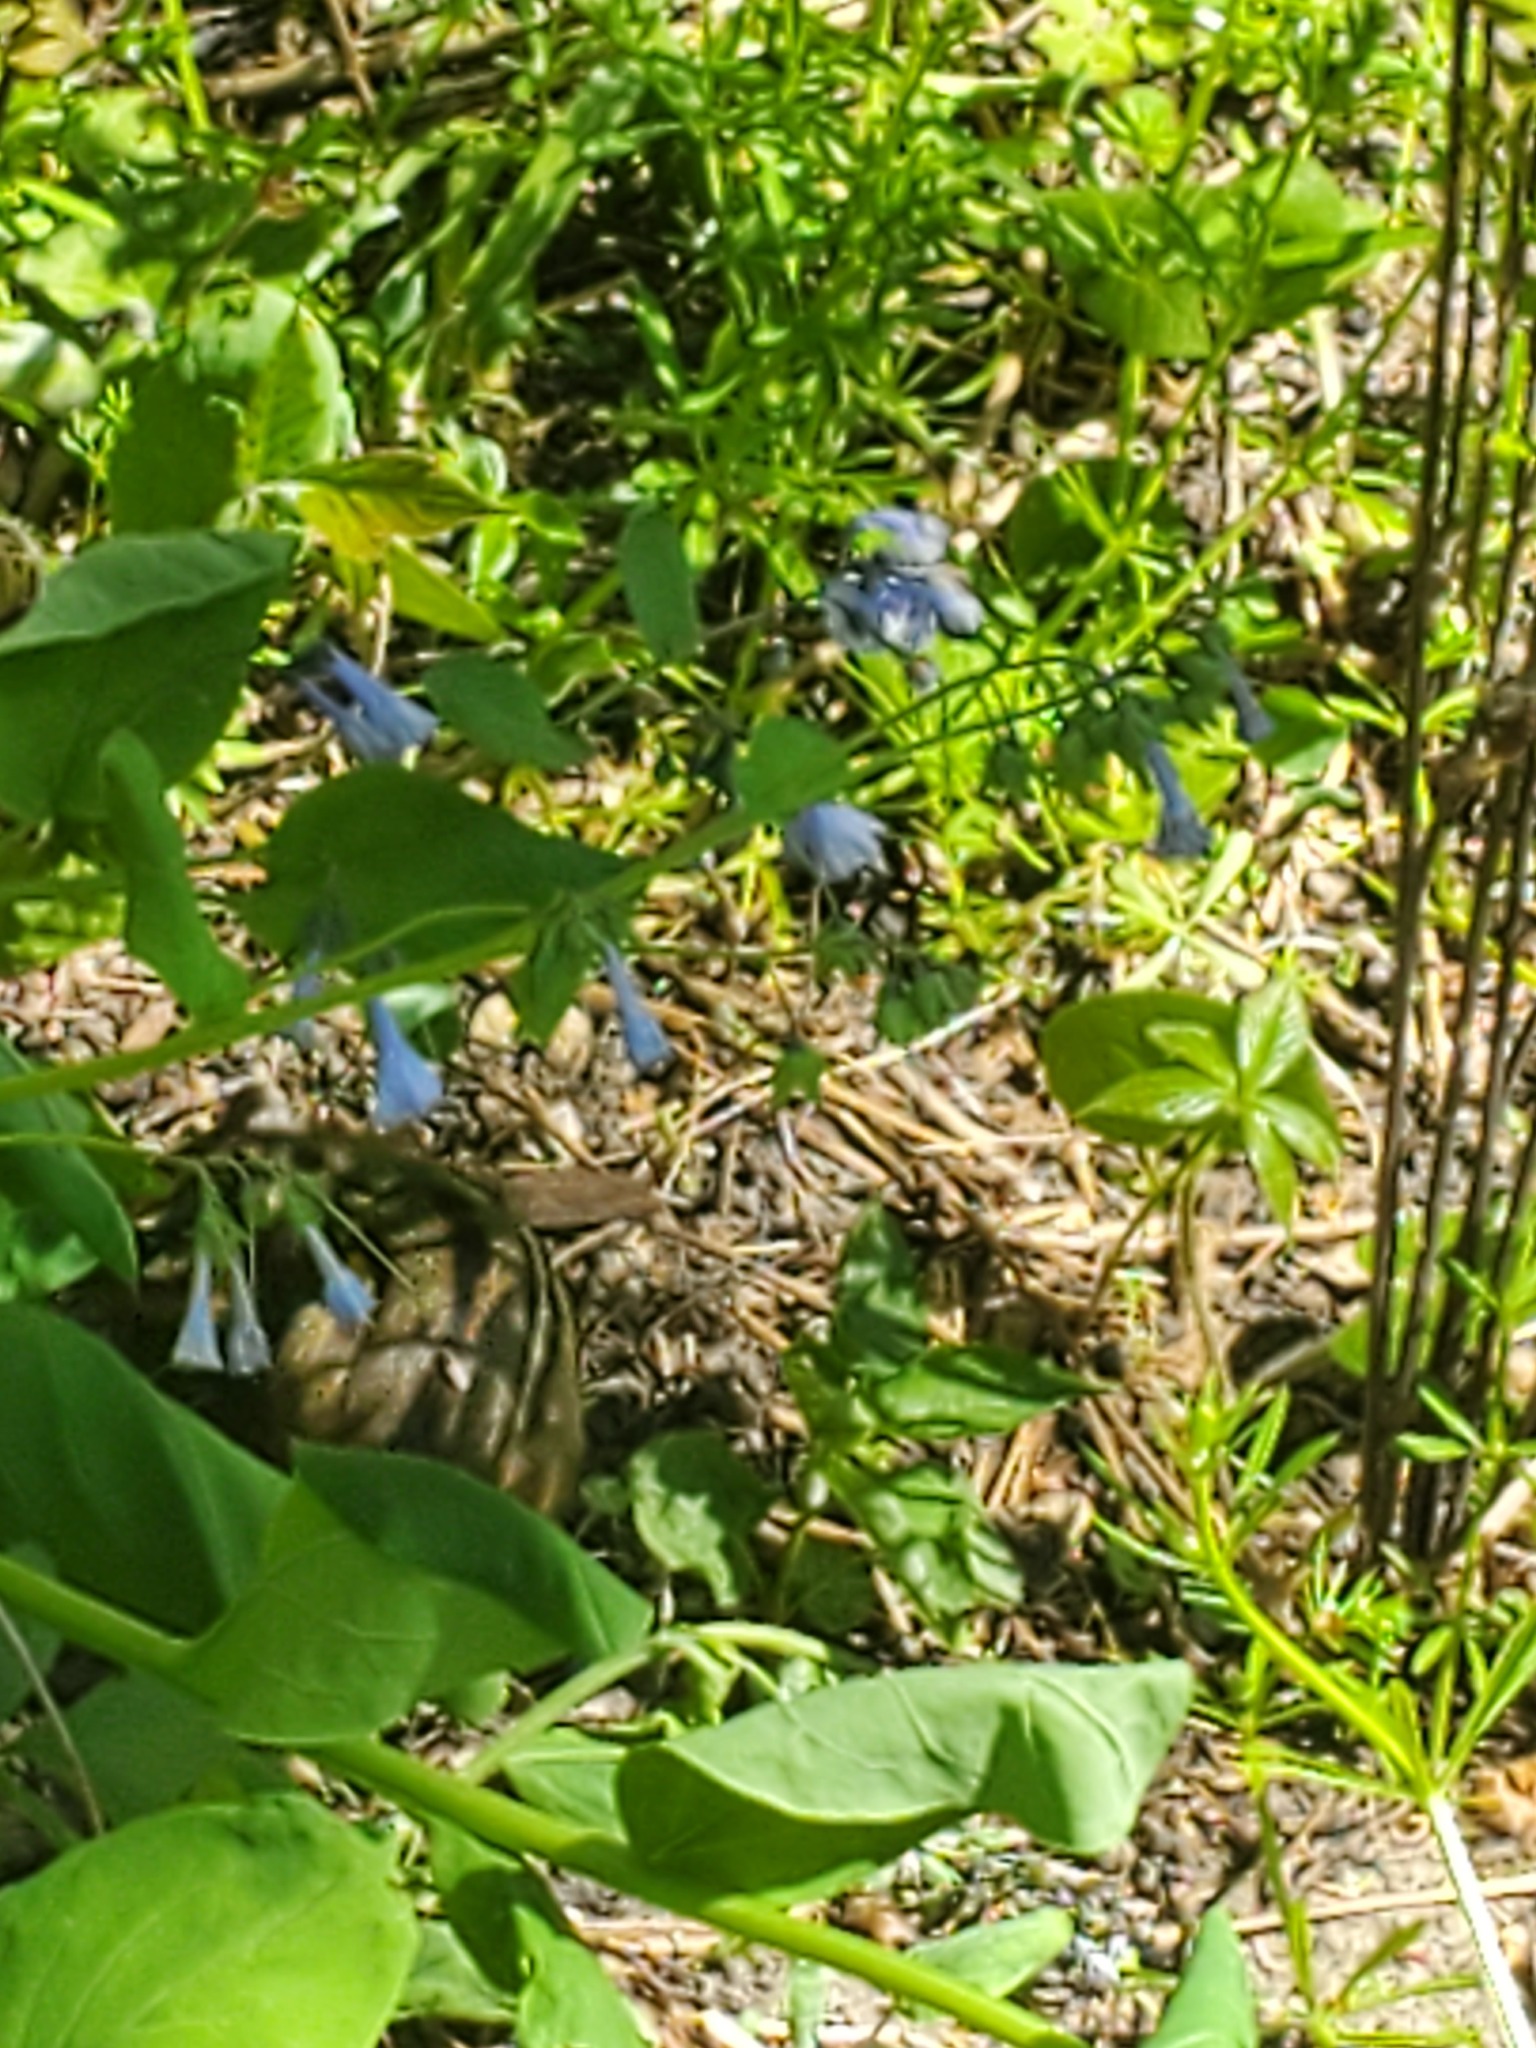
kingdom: Plantae
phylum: Tracheophyta
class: Magnoliopsida
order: Boraginales
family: Boraginaceae
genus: Mertensia
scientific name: Mertensia virginica
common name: Virginia bluebells
